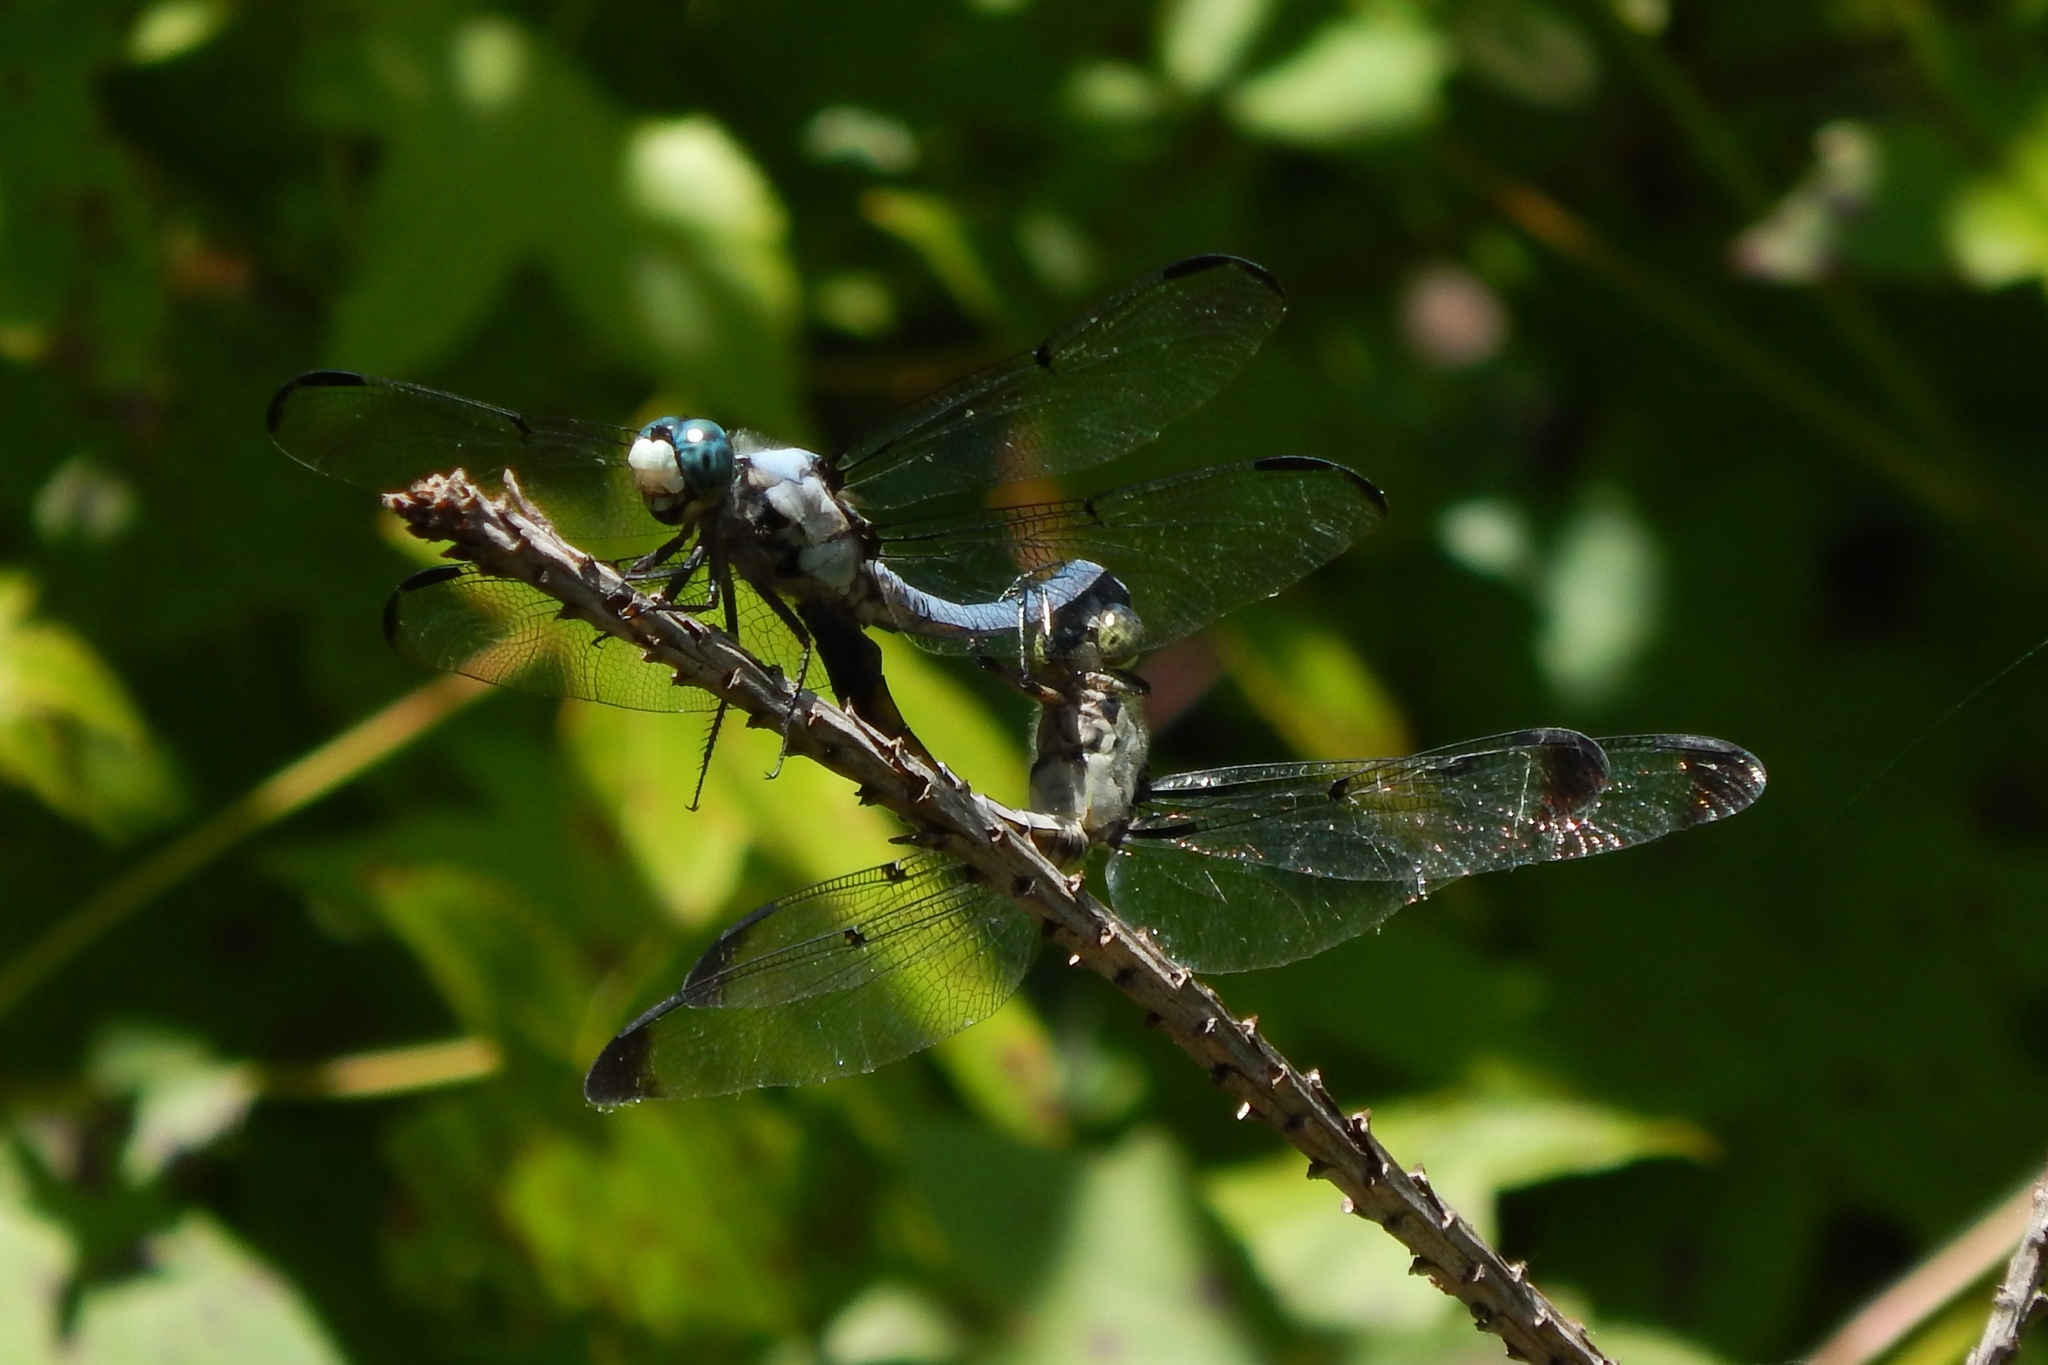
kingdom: Animalia
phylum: Arthropoda
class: Insecta
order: Odonata
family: Libellulidae
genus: Libellula
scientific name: Libellula vibrans
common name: Great blue skimmer
